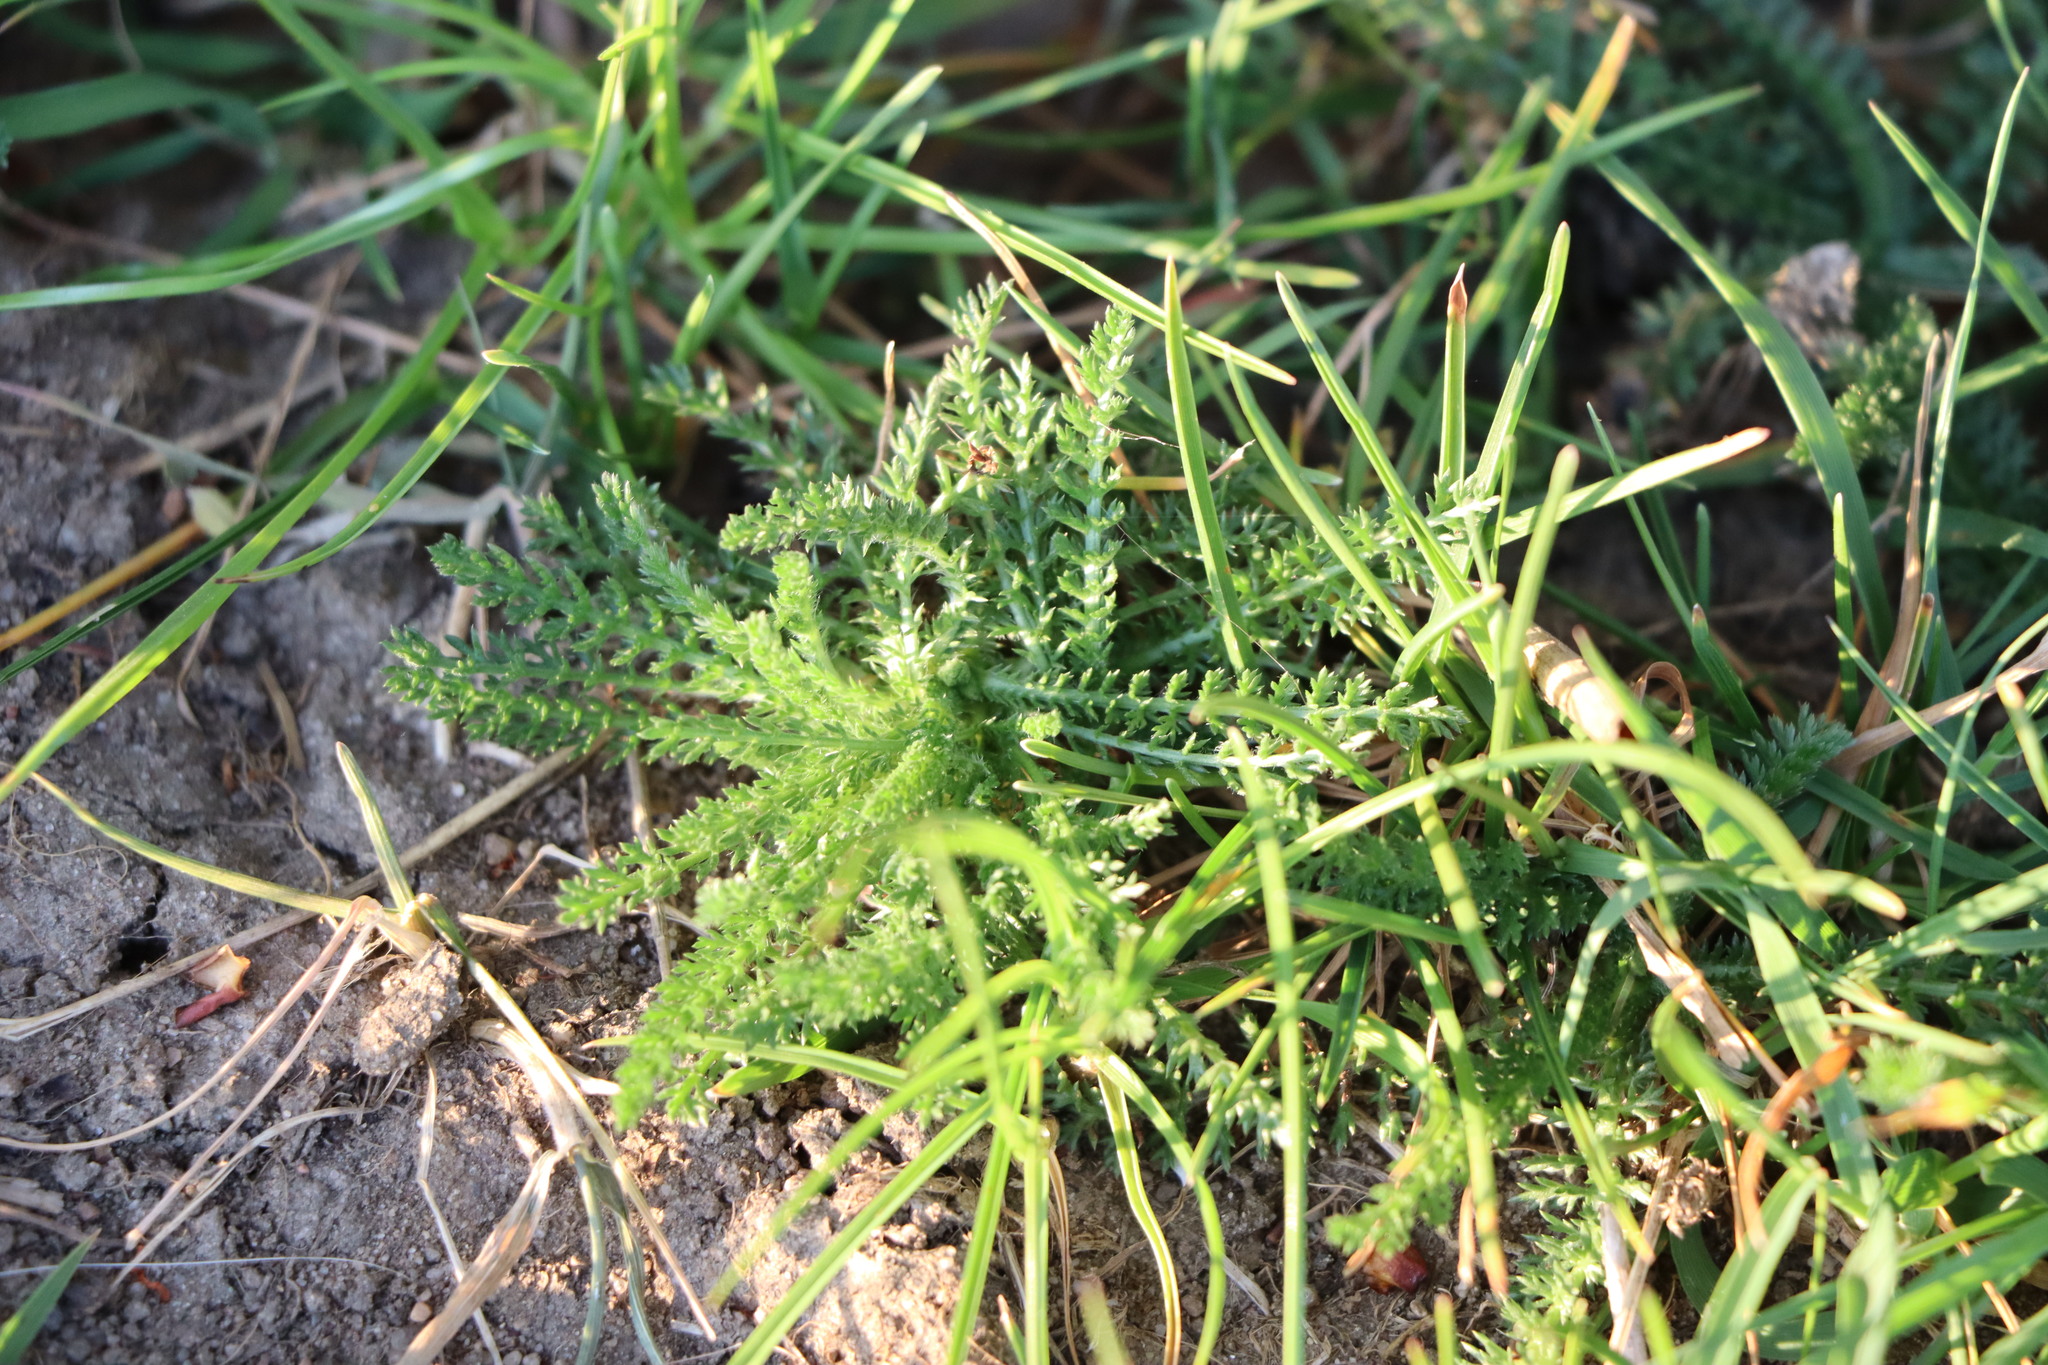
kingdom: Plantae
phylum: Tracheophyta
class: Magnoliopsida
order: Asterales
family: Asteraceae
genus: Achillea
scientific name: Achillea millefolium
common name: Yarrow
